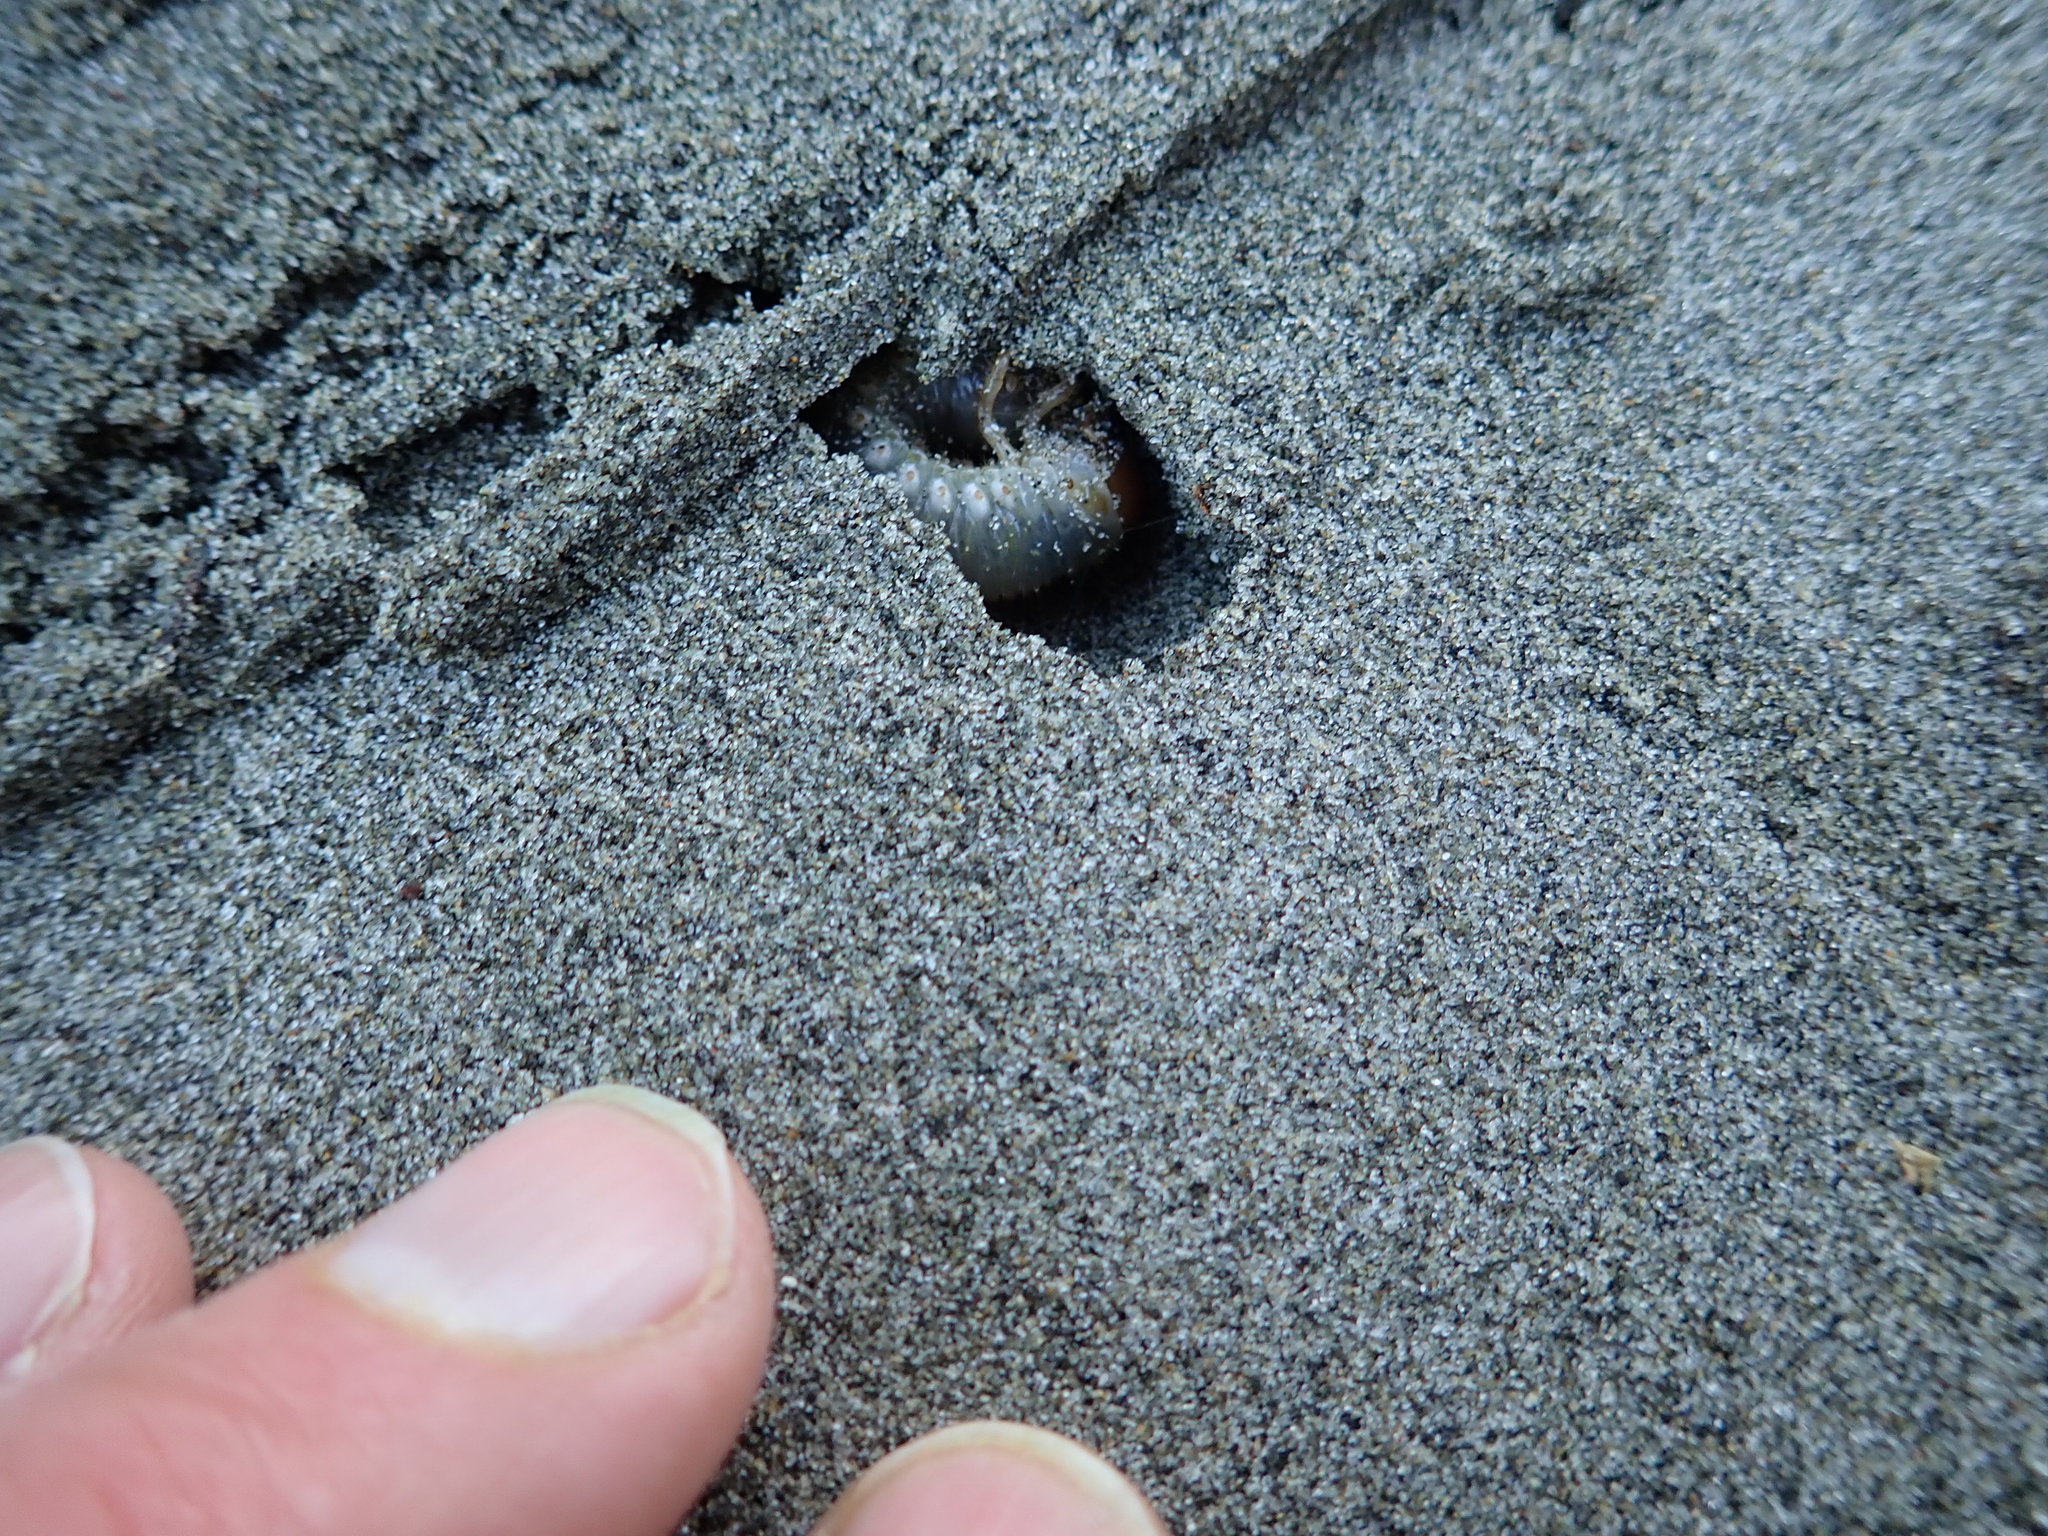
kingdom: Animalia
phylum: Arthropoda
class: Insecta
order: Coleoptera
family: Scarabaeidae
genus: Pericoptus
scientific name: Pericoptus truncatus
